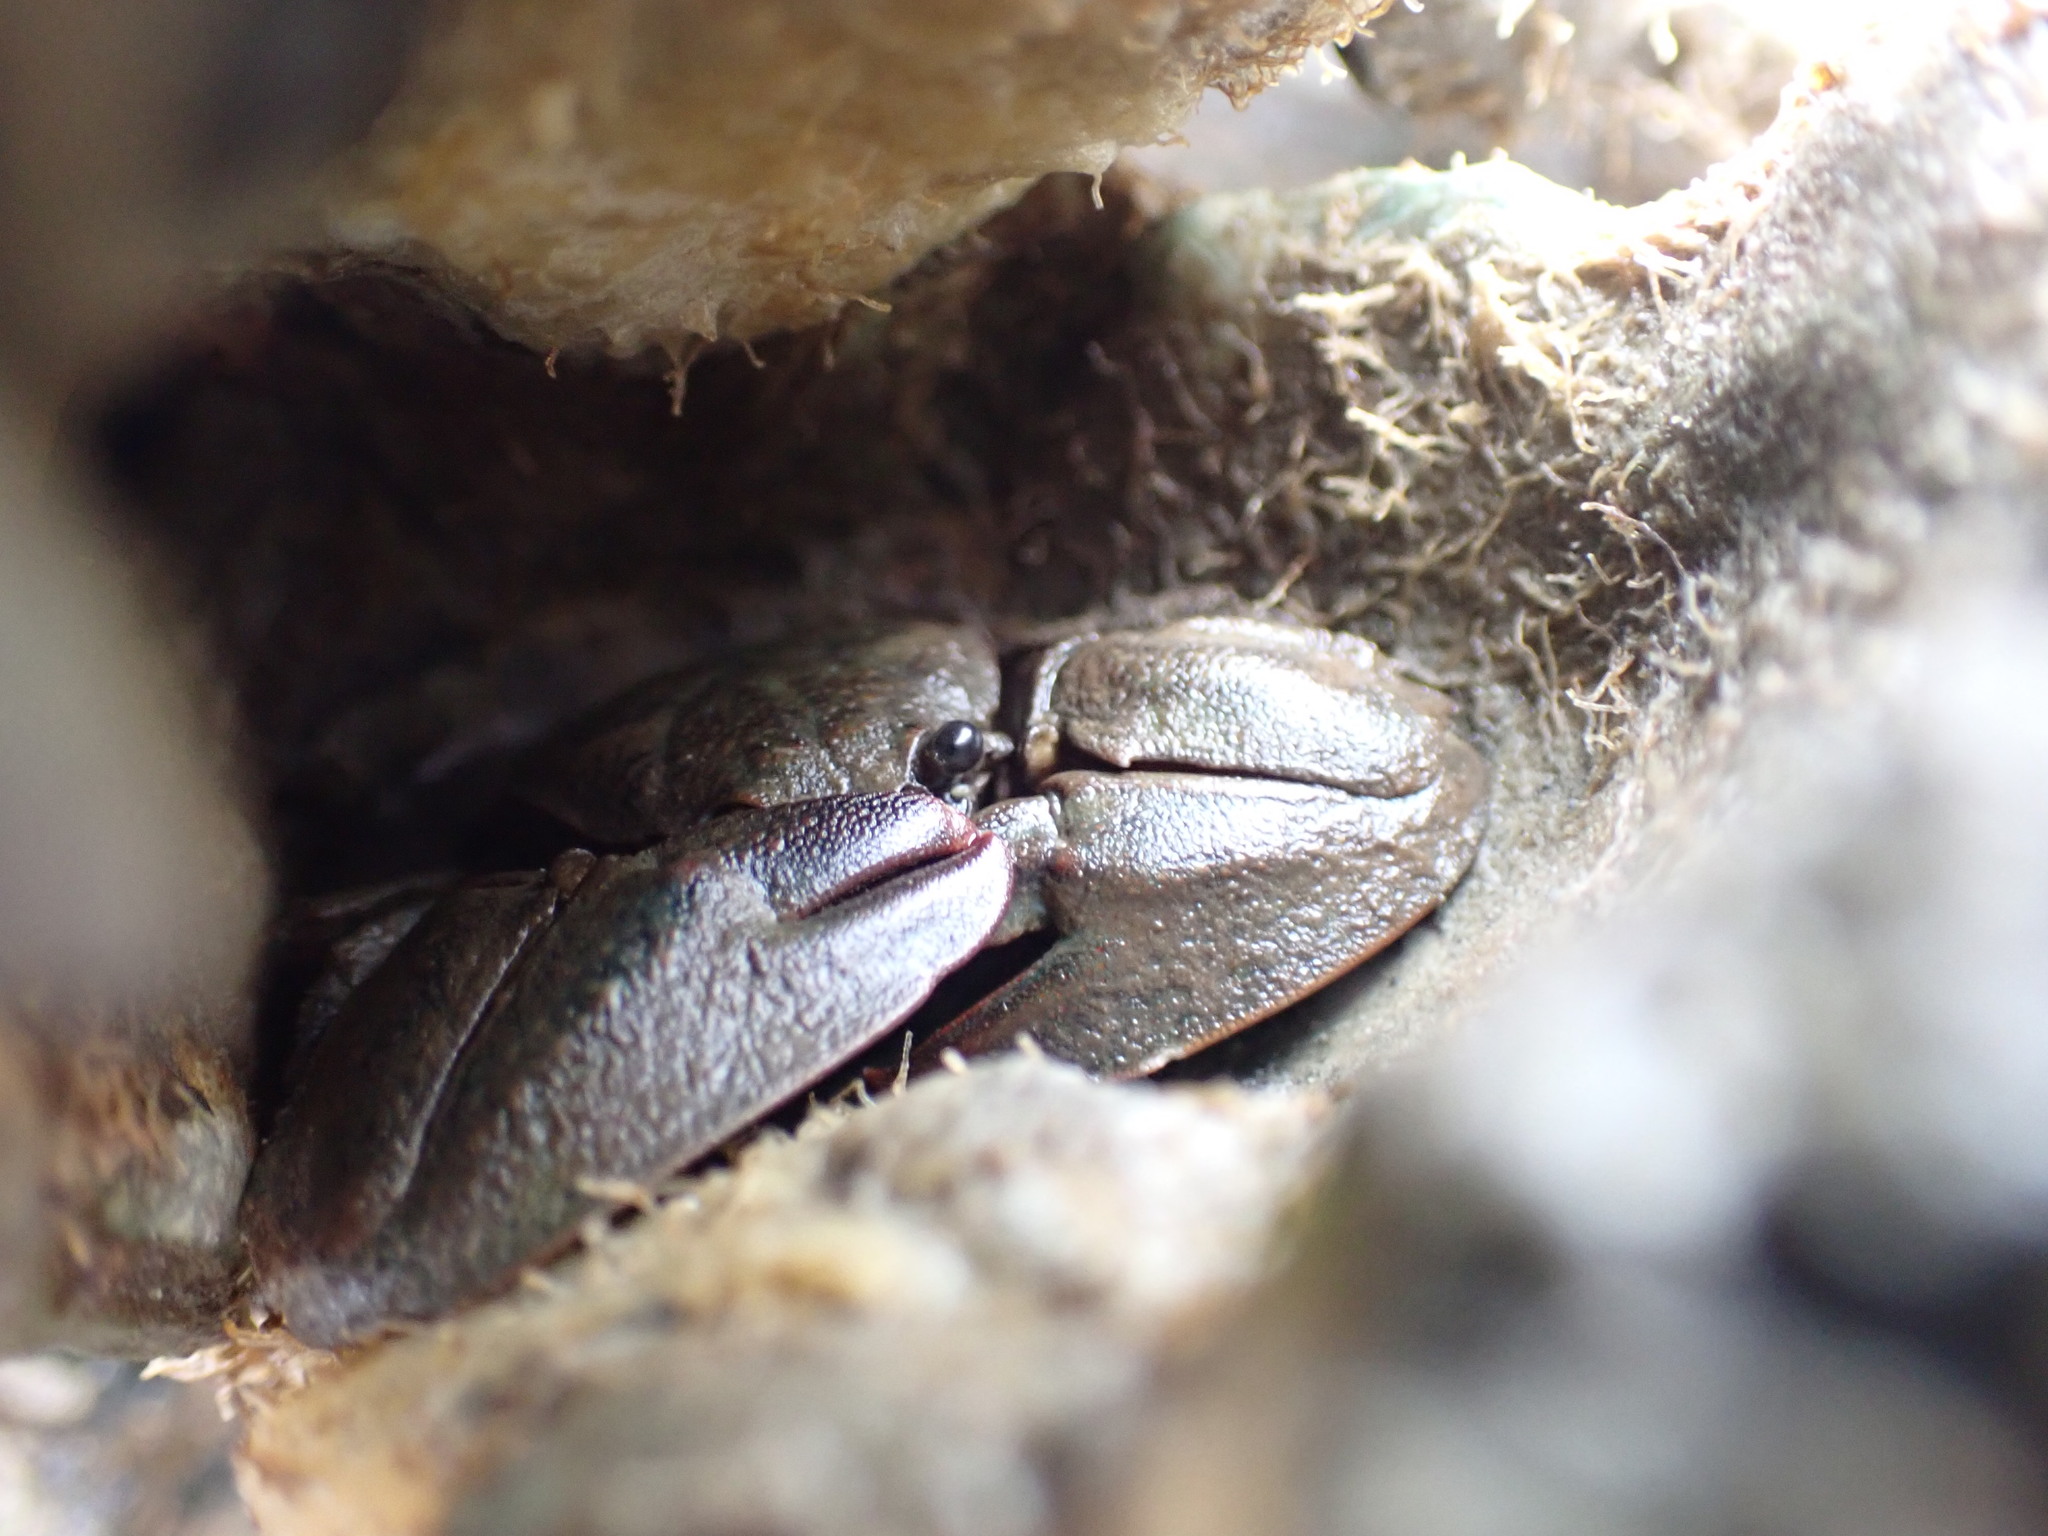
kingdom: Animalia
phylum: Arthropoda
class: Malacostraca
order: Decapoda
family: Porcellanidae
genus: Petrolisthes
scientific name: Petrolisthes elongatus
